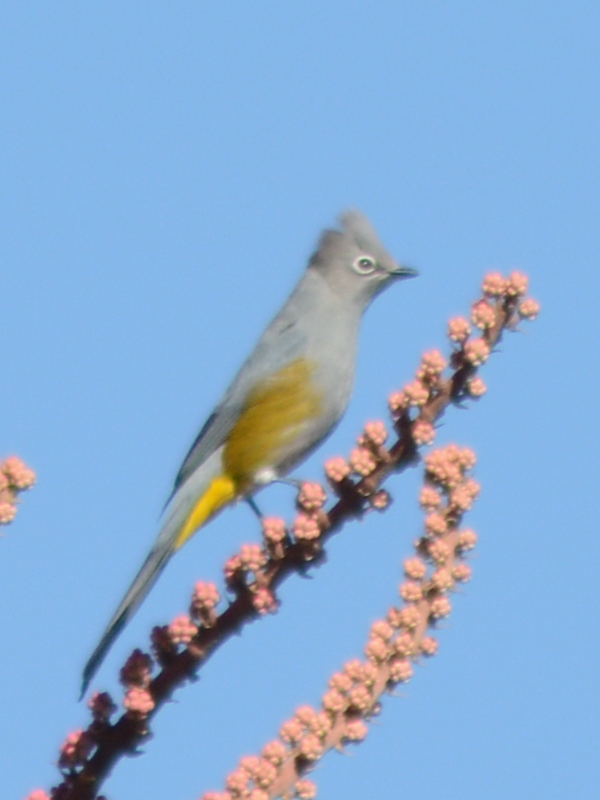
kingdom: Animalia
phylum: Chordata
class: Aves
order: Passeriformes
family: Ptilogonatidae
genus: Ptilogonys
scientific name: Ptilogonys cinereus
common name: Gray silky-flycatcher
